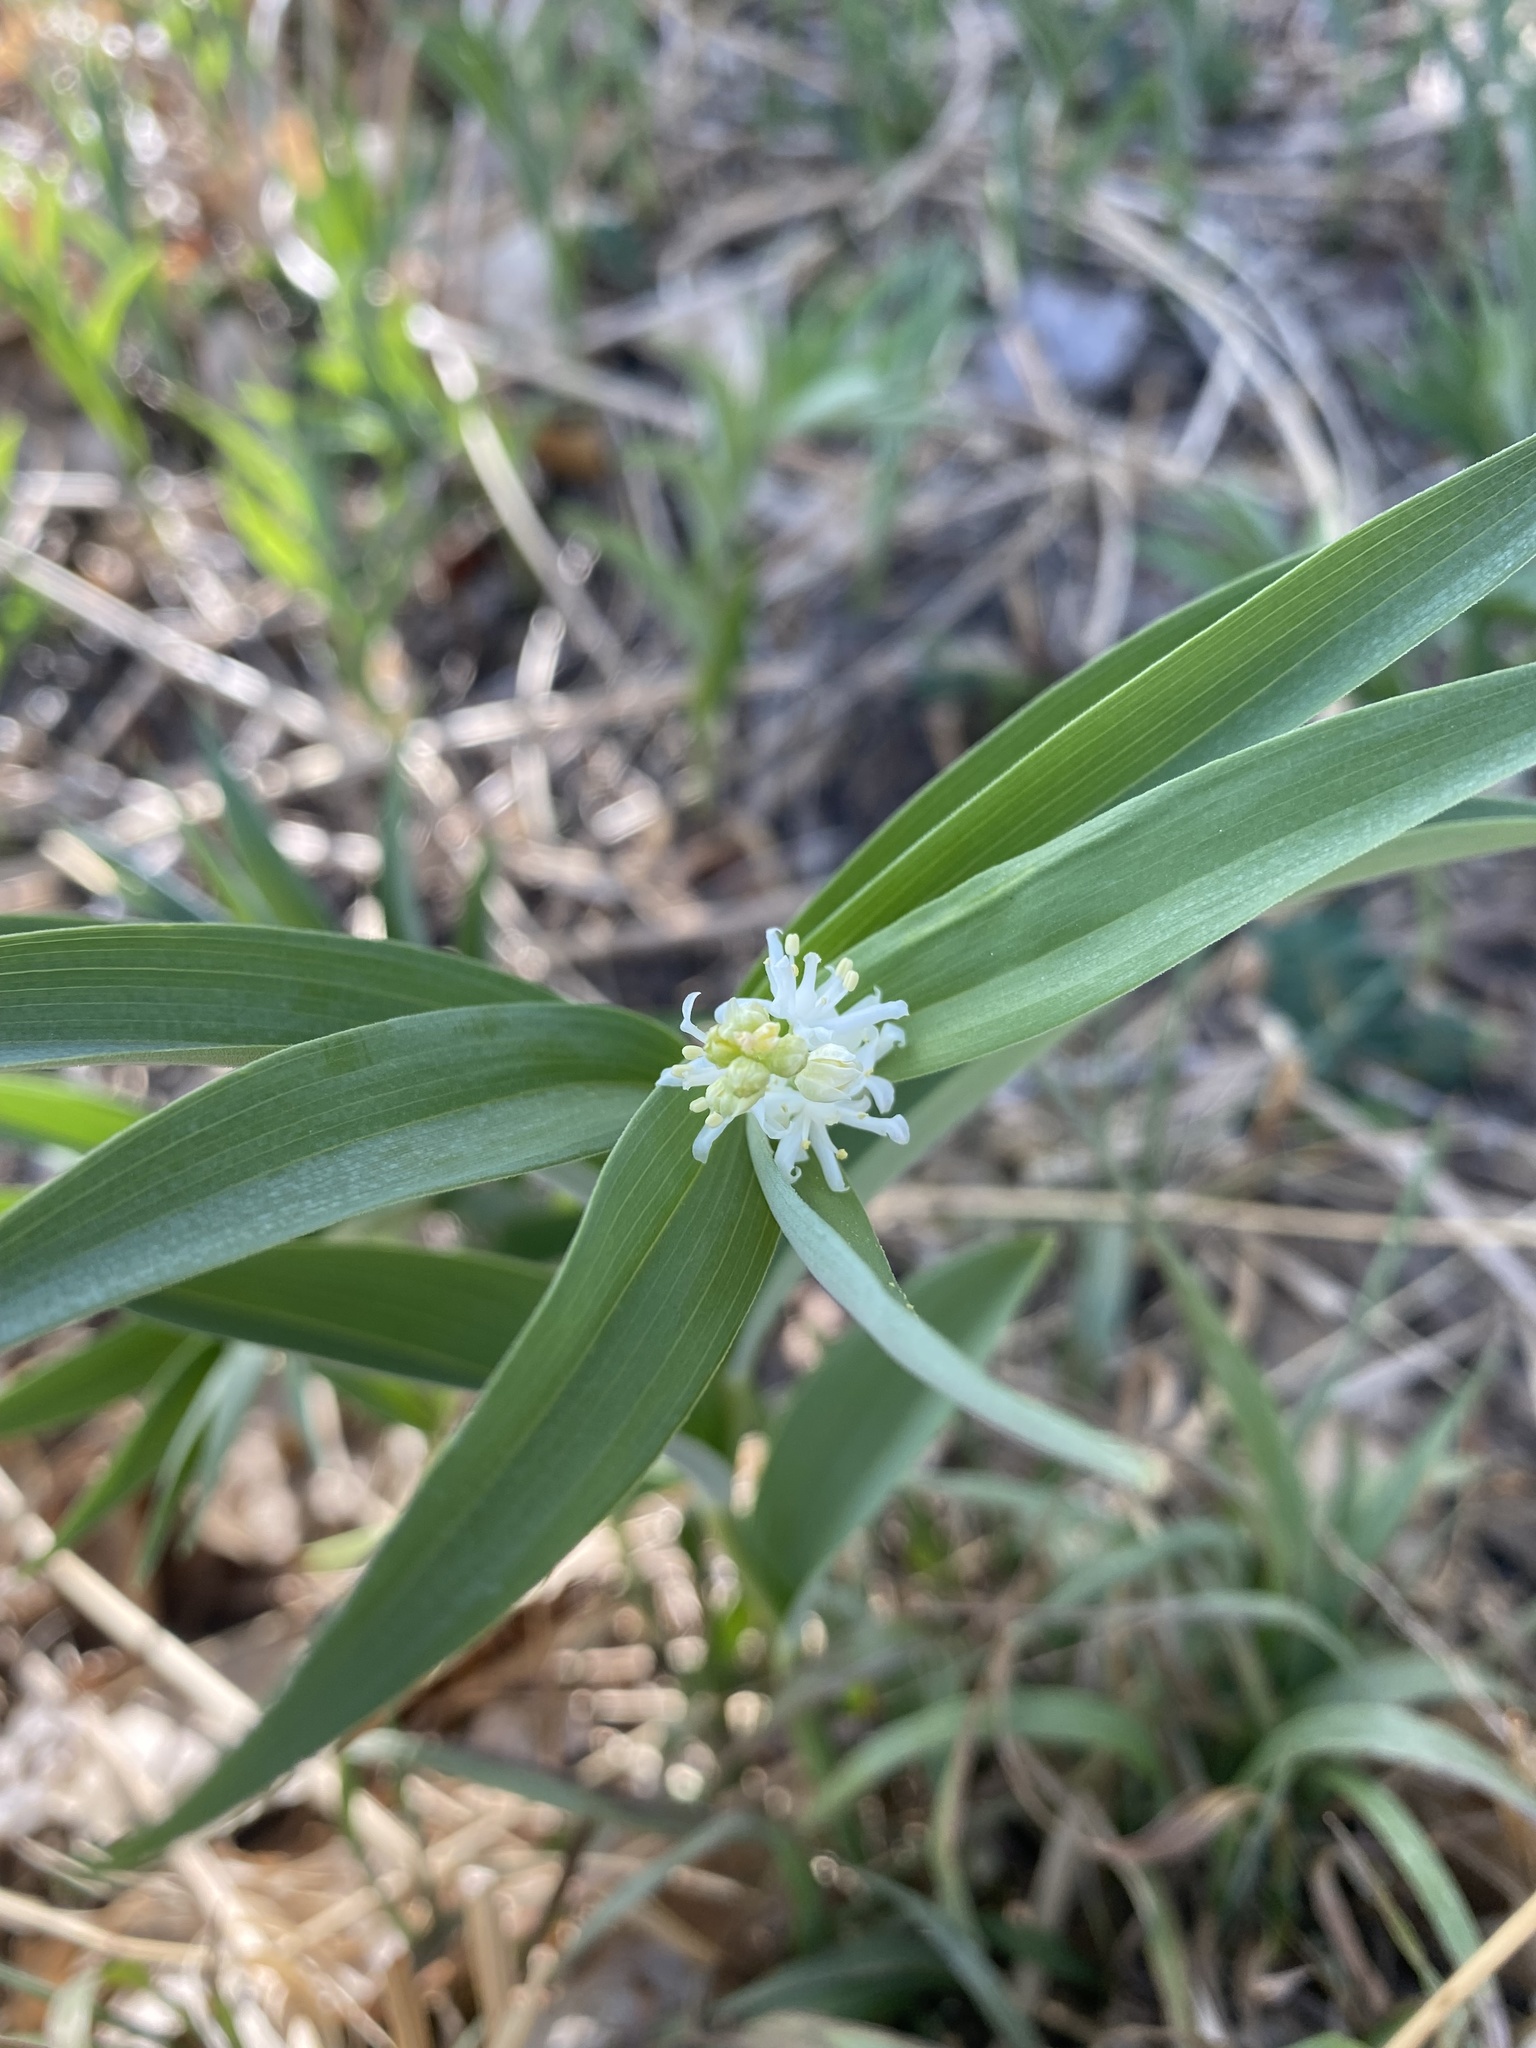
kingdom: Plantae
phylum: Tracheophyta
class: Liliopsida
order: Asparagales
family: Asparagaceae
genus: Maianthemum
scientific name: Maianthemum stellatum
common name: Little false solomon's seal
